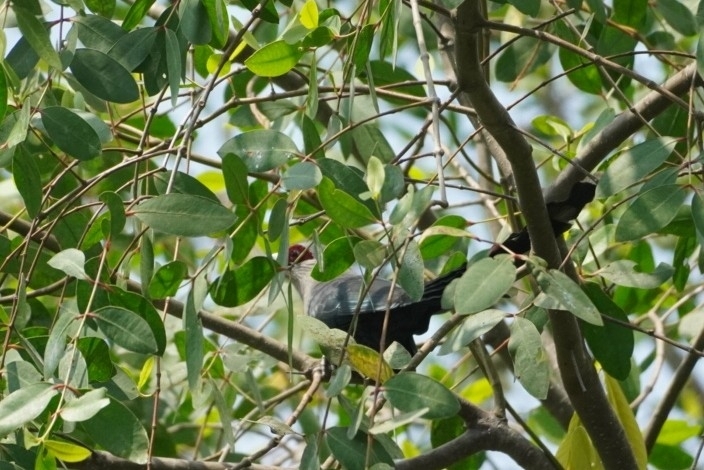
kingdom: Animalia
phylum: Chordata
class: Aves
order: Cuculiformes
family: Cuculidae
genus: Rhopodytes
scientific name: Rhopodytes tristis
